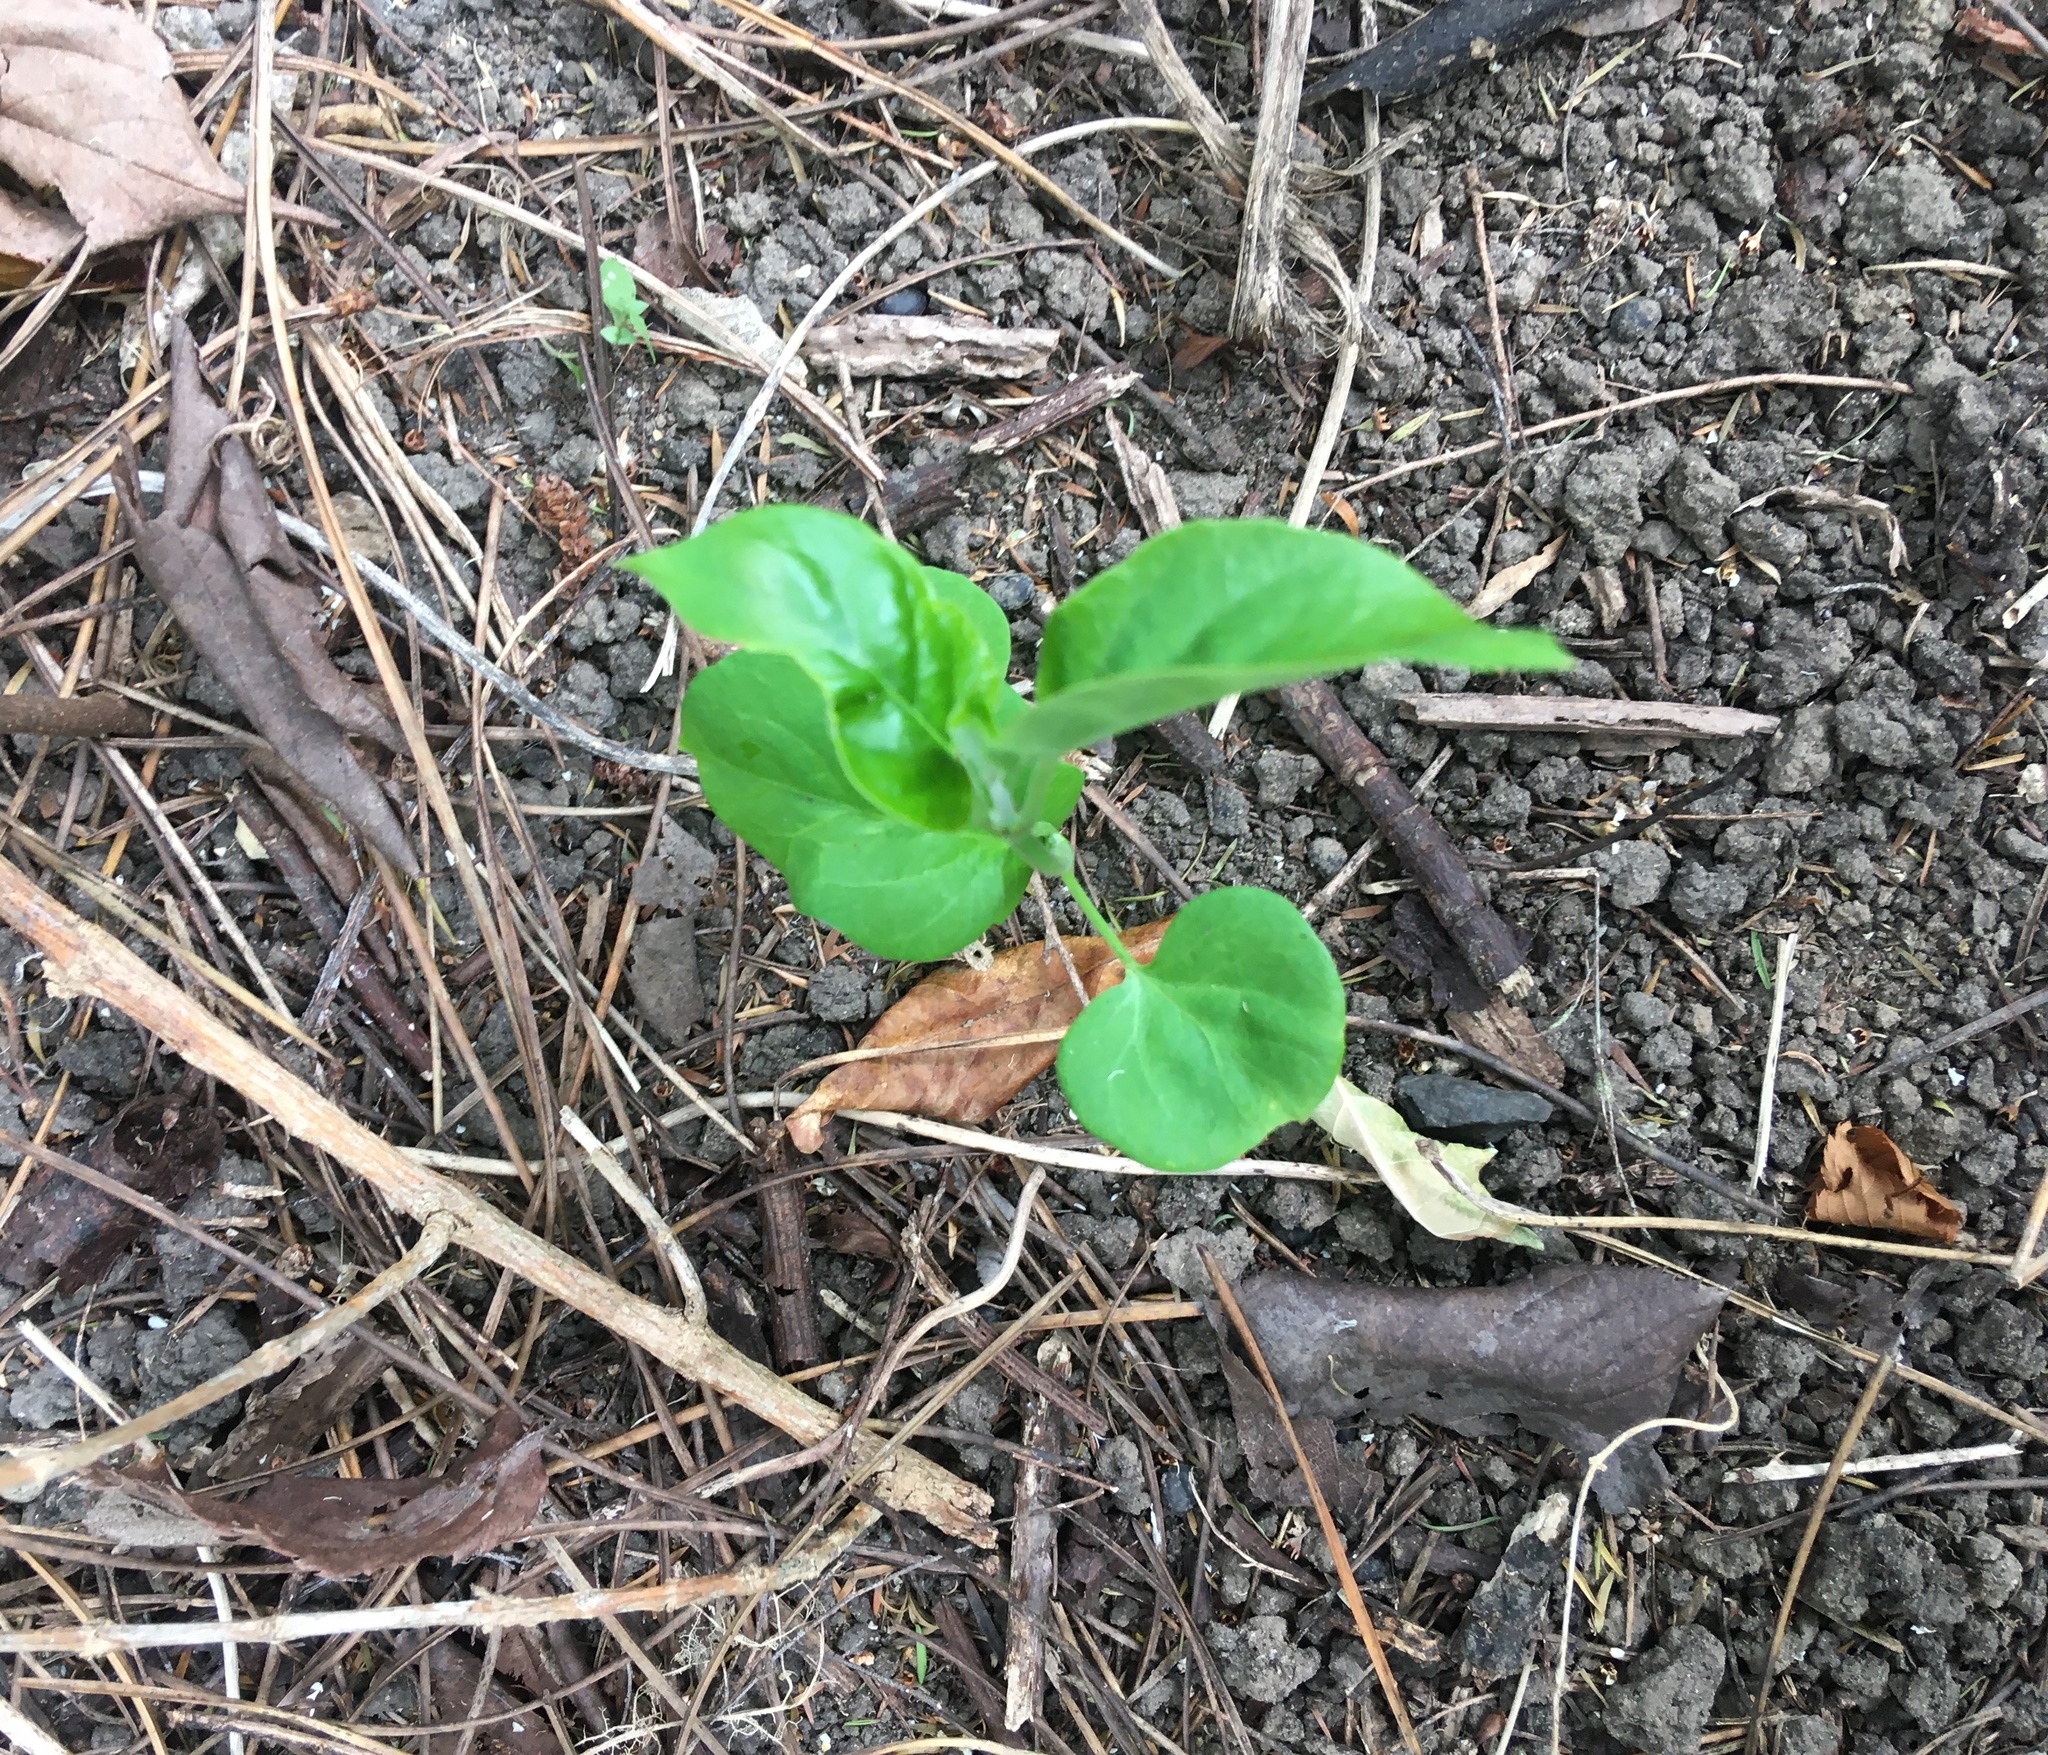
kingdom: Plantae
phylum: Tracheophyta
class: Magnoliopsida
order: Gentianales
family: Apocynaceae
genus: Araujia
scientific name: Araujia sericifera
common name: White bladderflower
